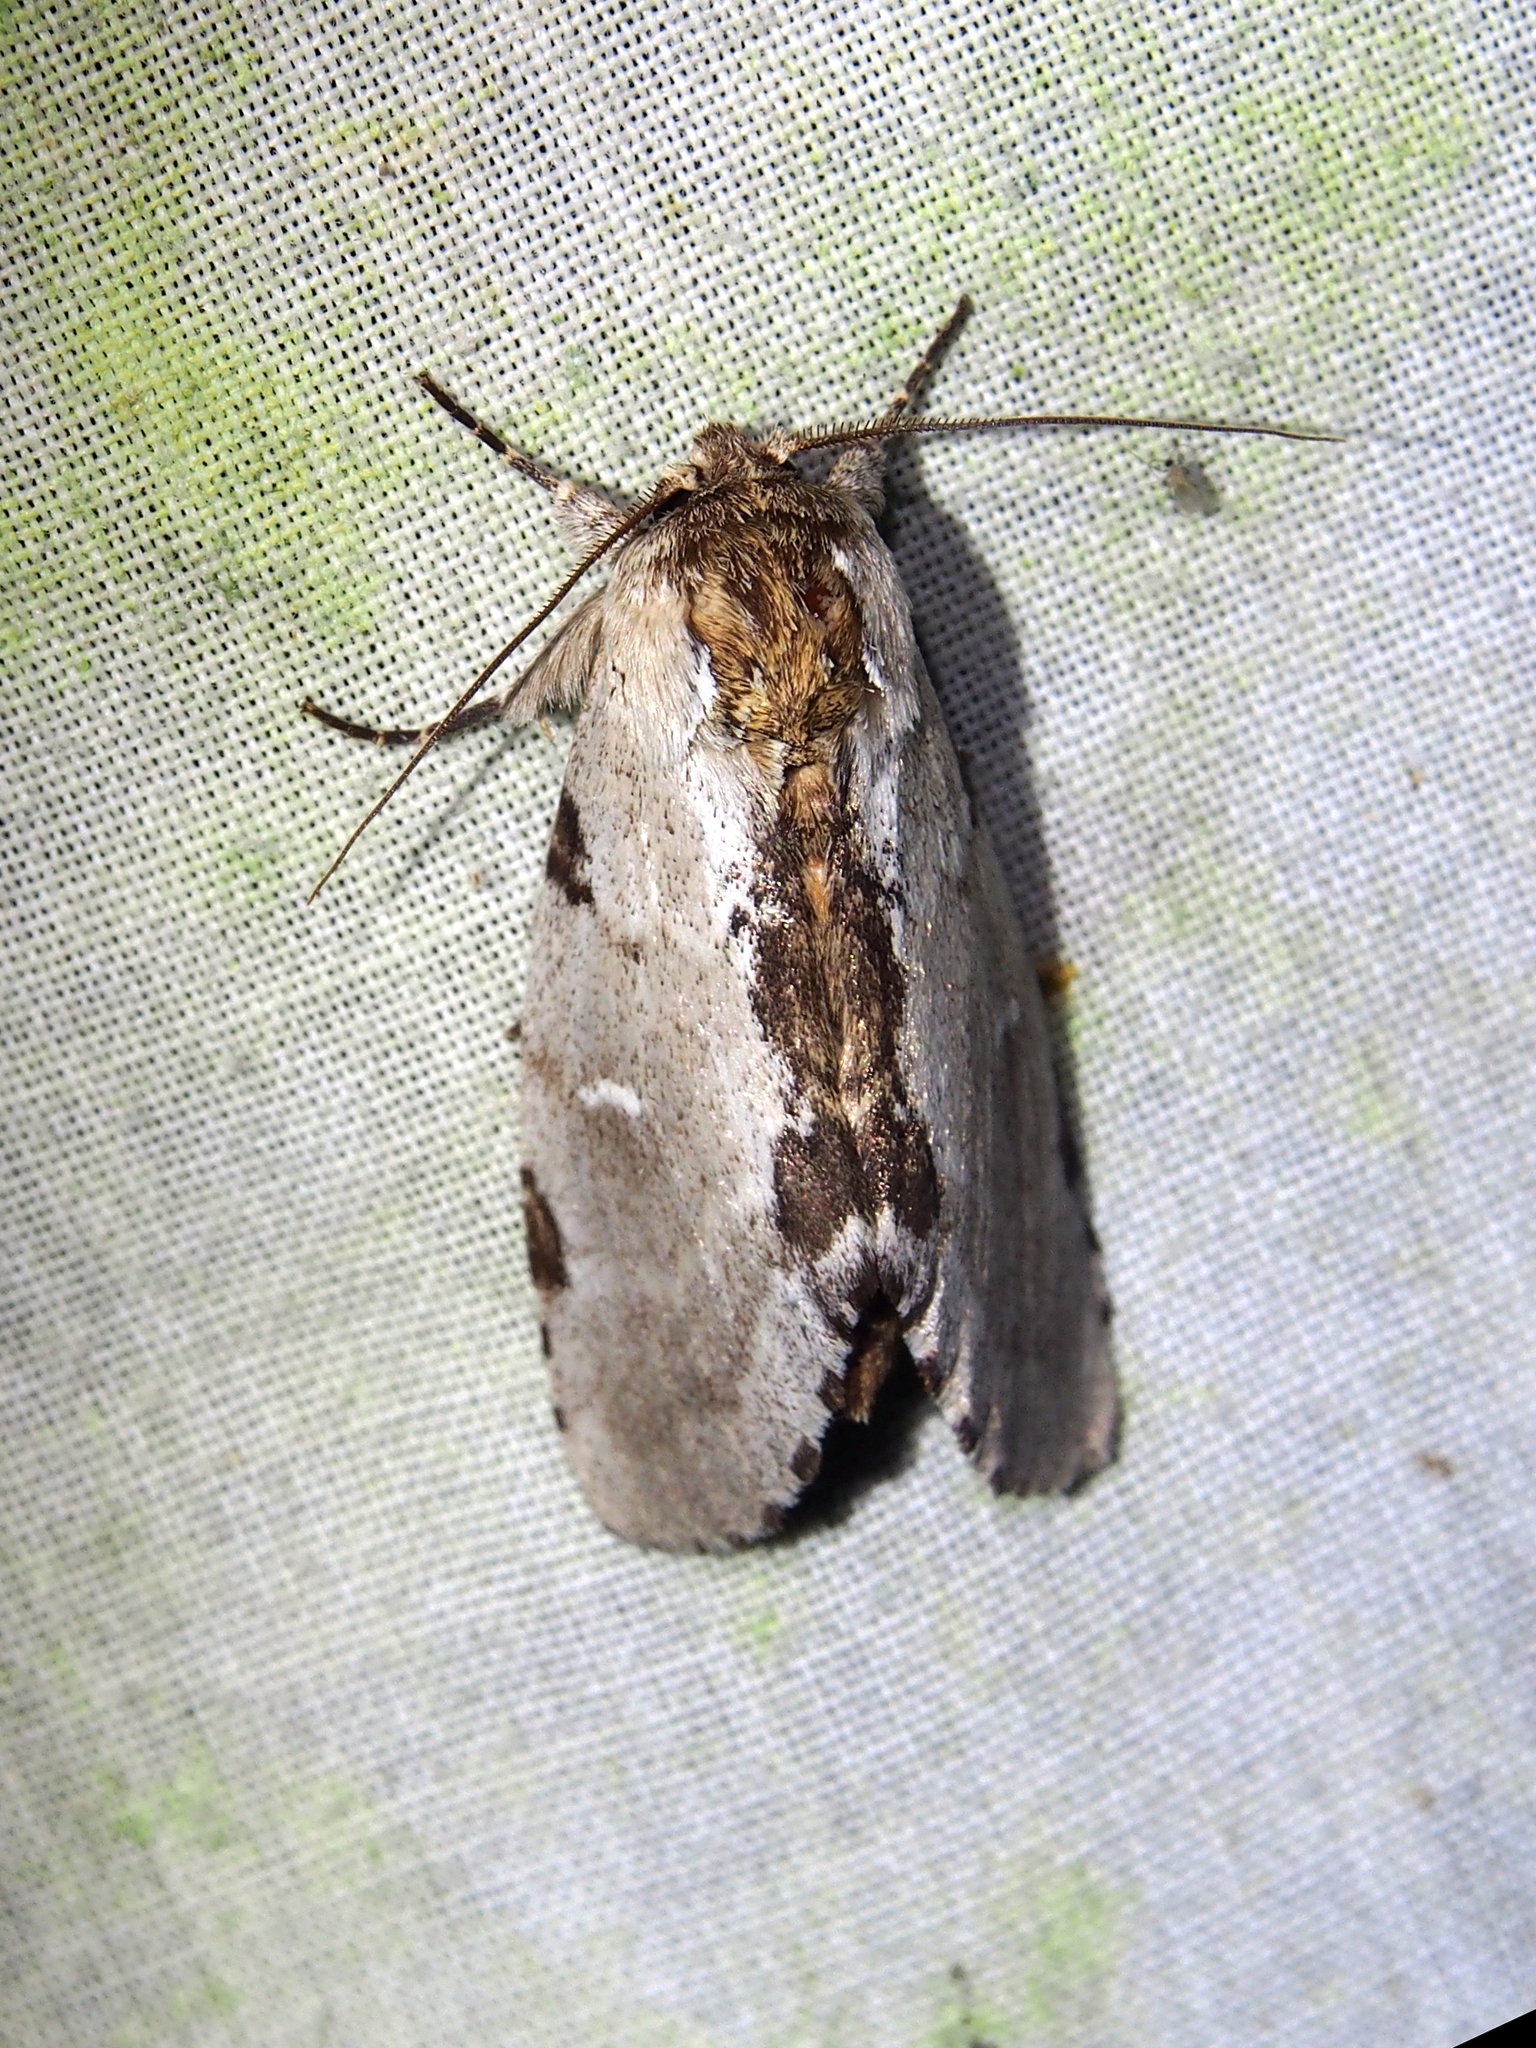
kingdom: Animalia
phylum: Arthropoda
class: Insecta
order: Lepidoptera
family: Notodontidae
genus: Malocampa
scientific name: Malocampa albolineata
